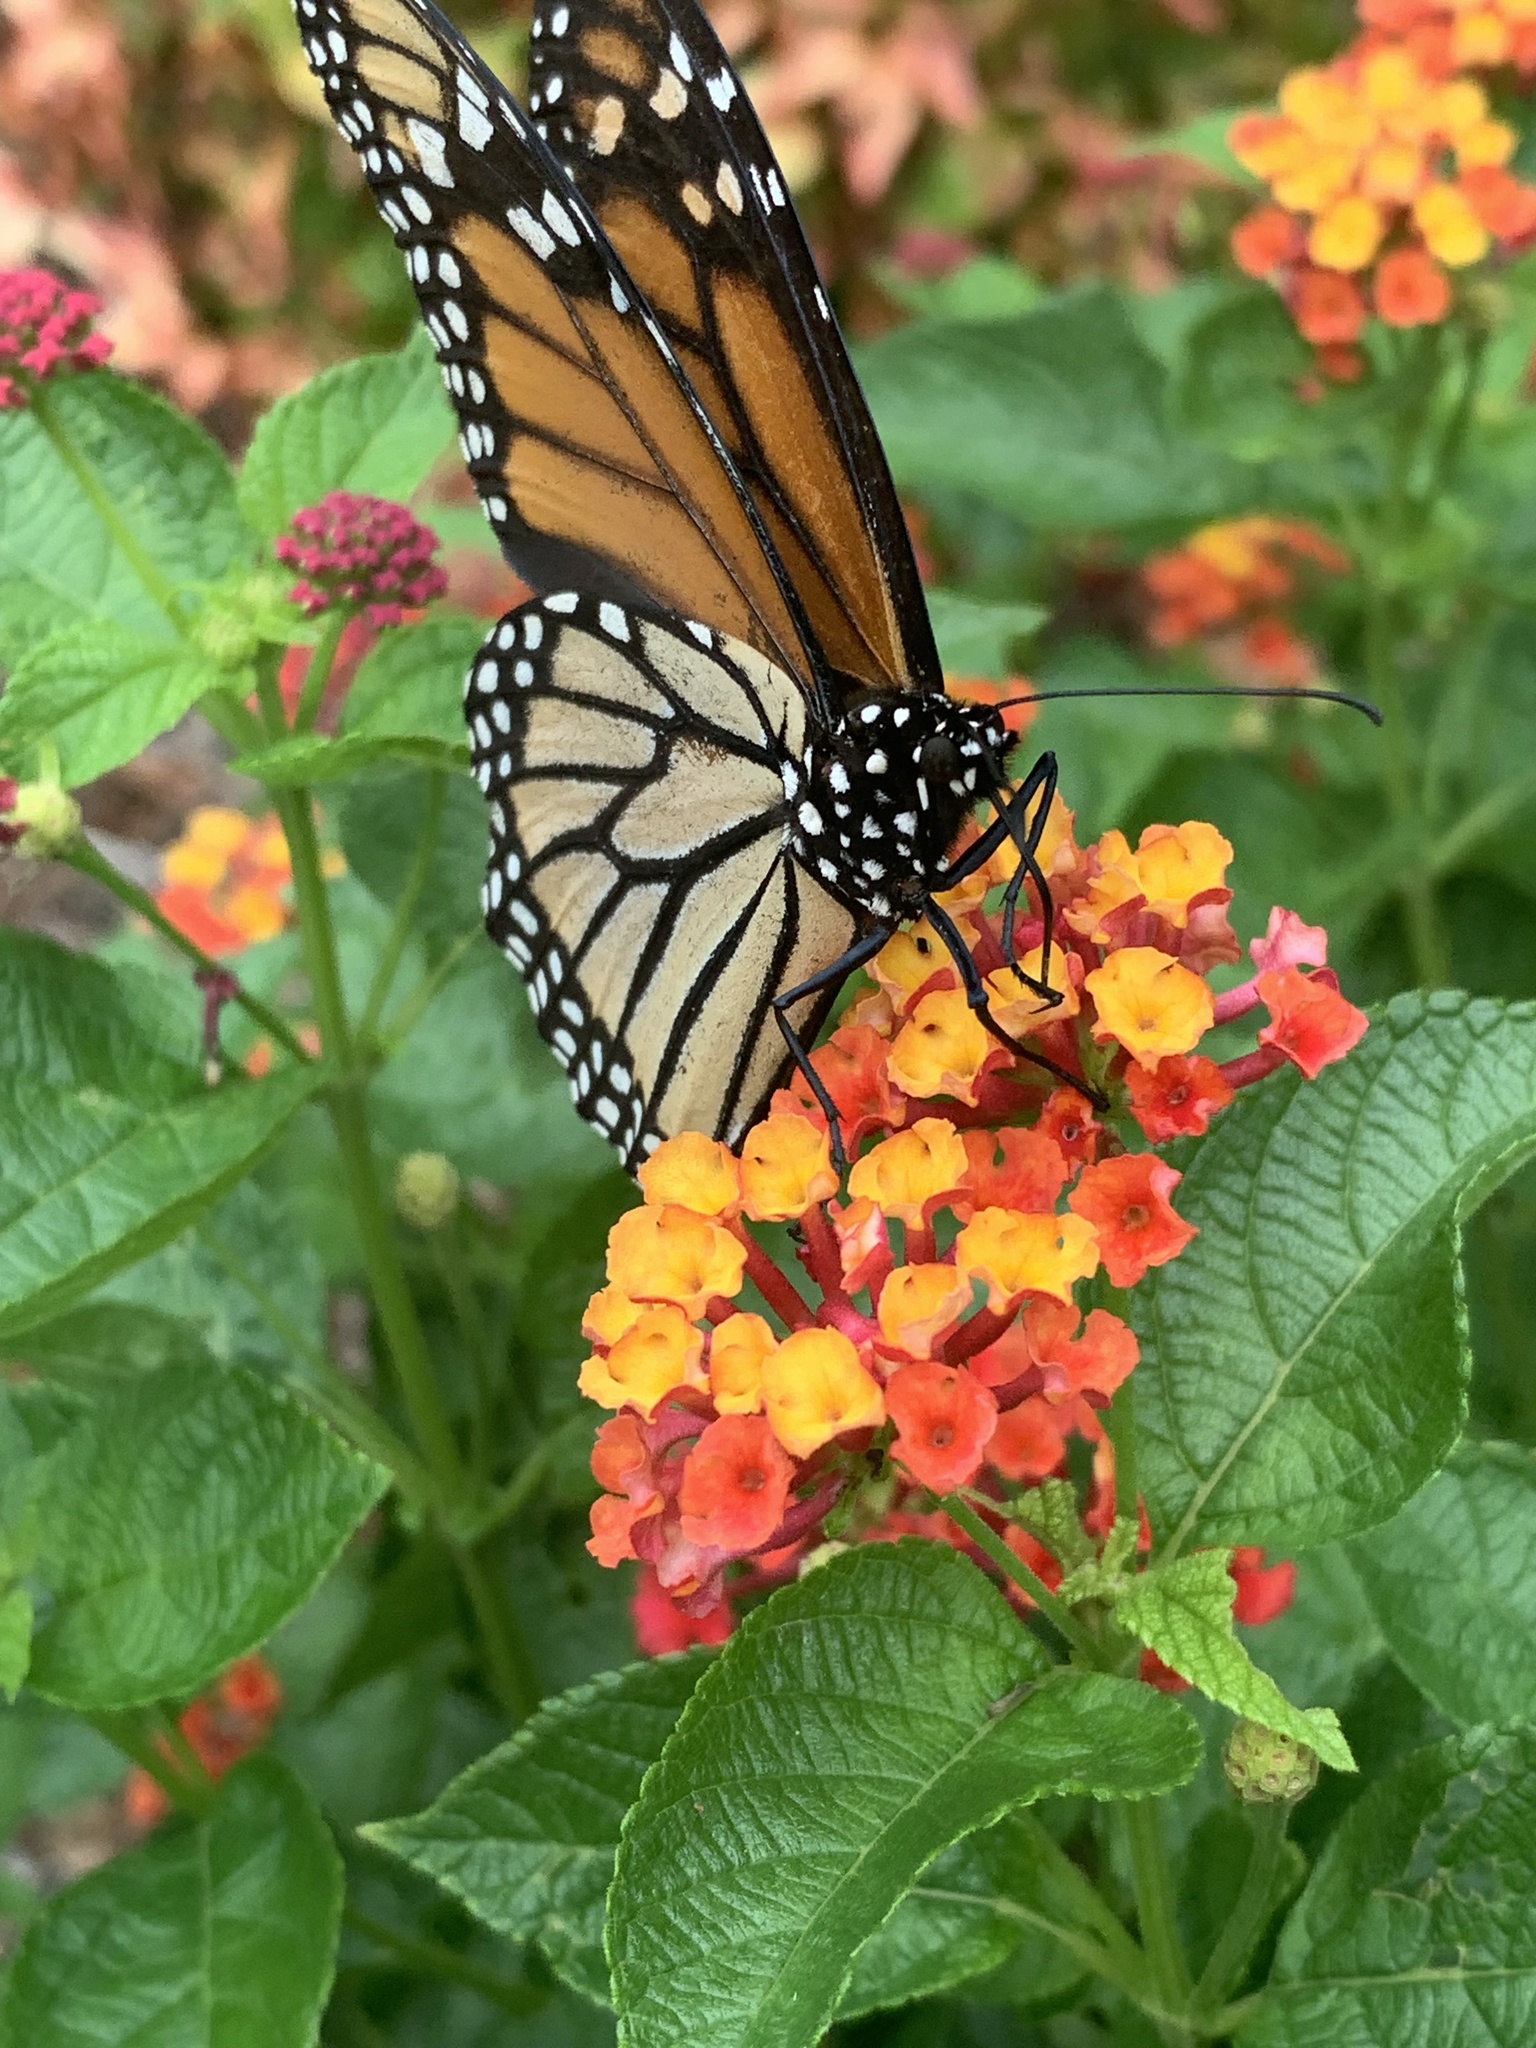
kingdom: Animalia
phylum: Arthropoda
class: Insecta
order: Lepidoptera
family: Nymphalidae
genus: Danaus
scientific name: Danaus plexippus
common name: Monarch
